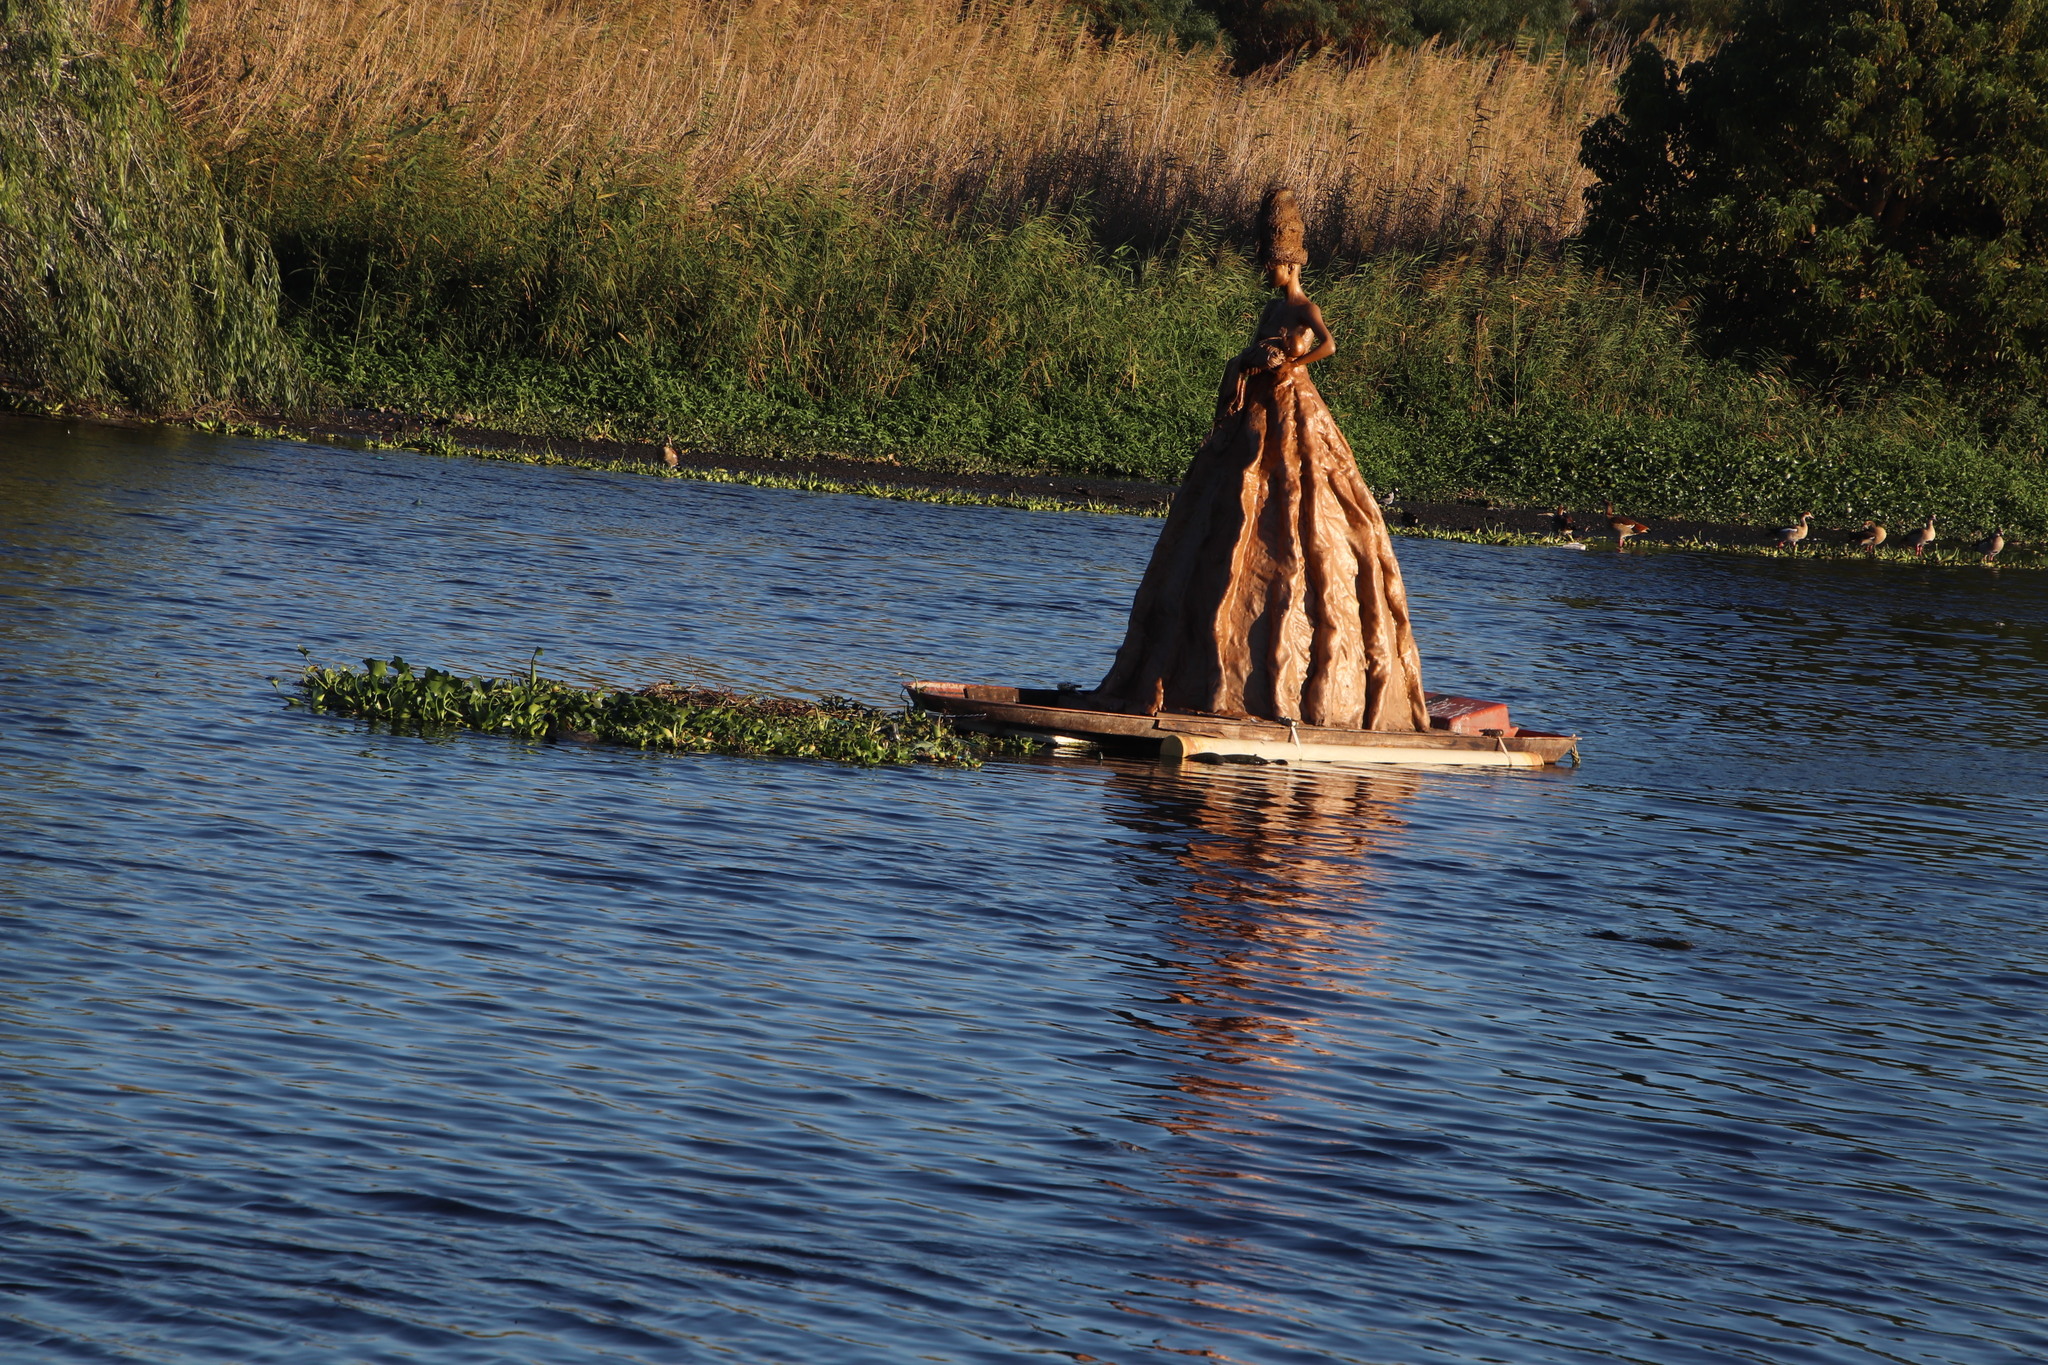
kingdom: Plantae
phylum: Tracheophyta
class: Liliopsida
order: Commelinales
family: Pontederiaceae
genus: Pontederia
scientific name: Pontederia crassipes
